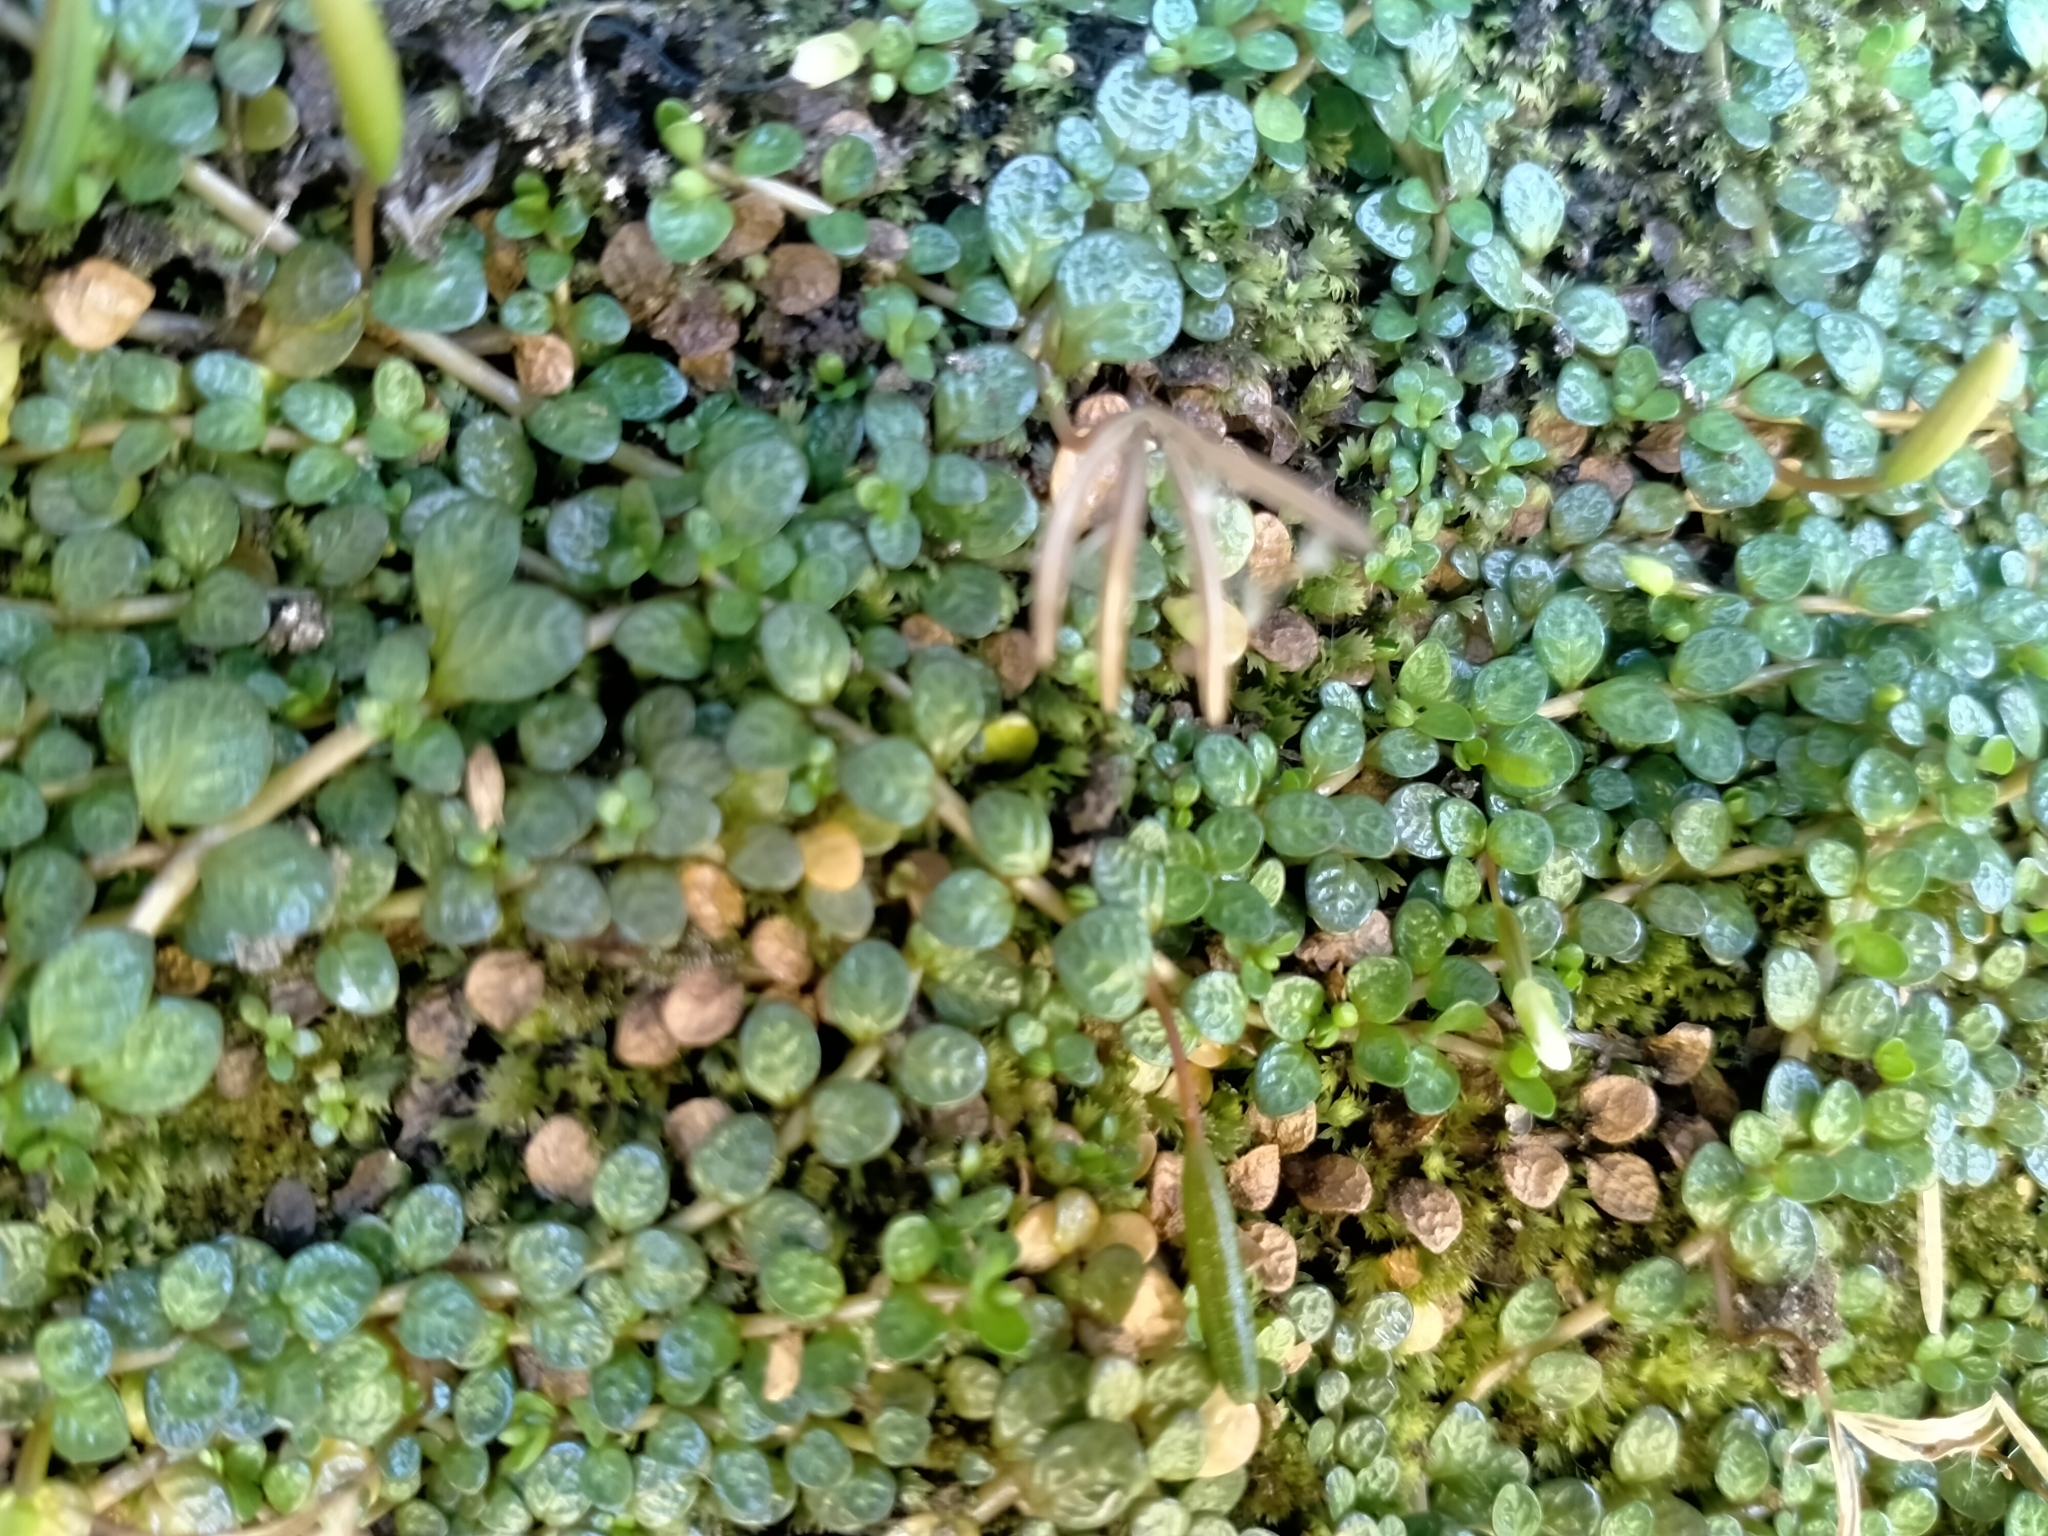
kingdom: Plantae
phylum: Tracheophyta
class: Magnoliopsida
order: Myrtales
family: Onagraceae
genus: Epilobium
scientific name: Epilobium komarovianum
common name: Bronzy willowherb
